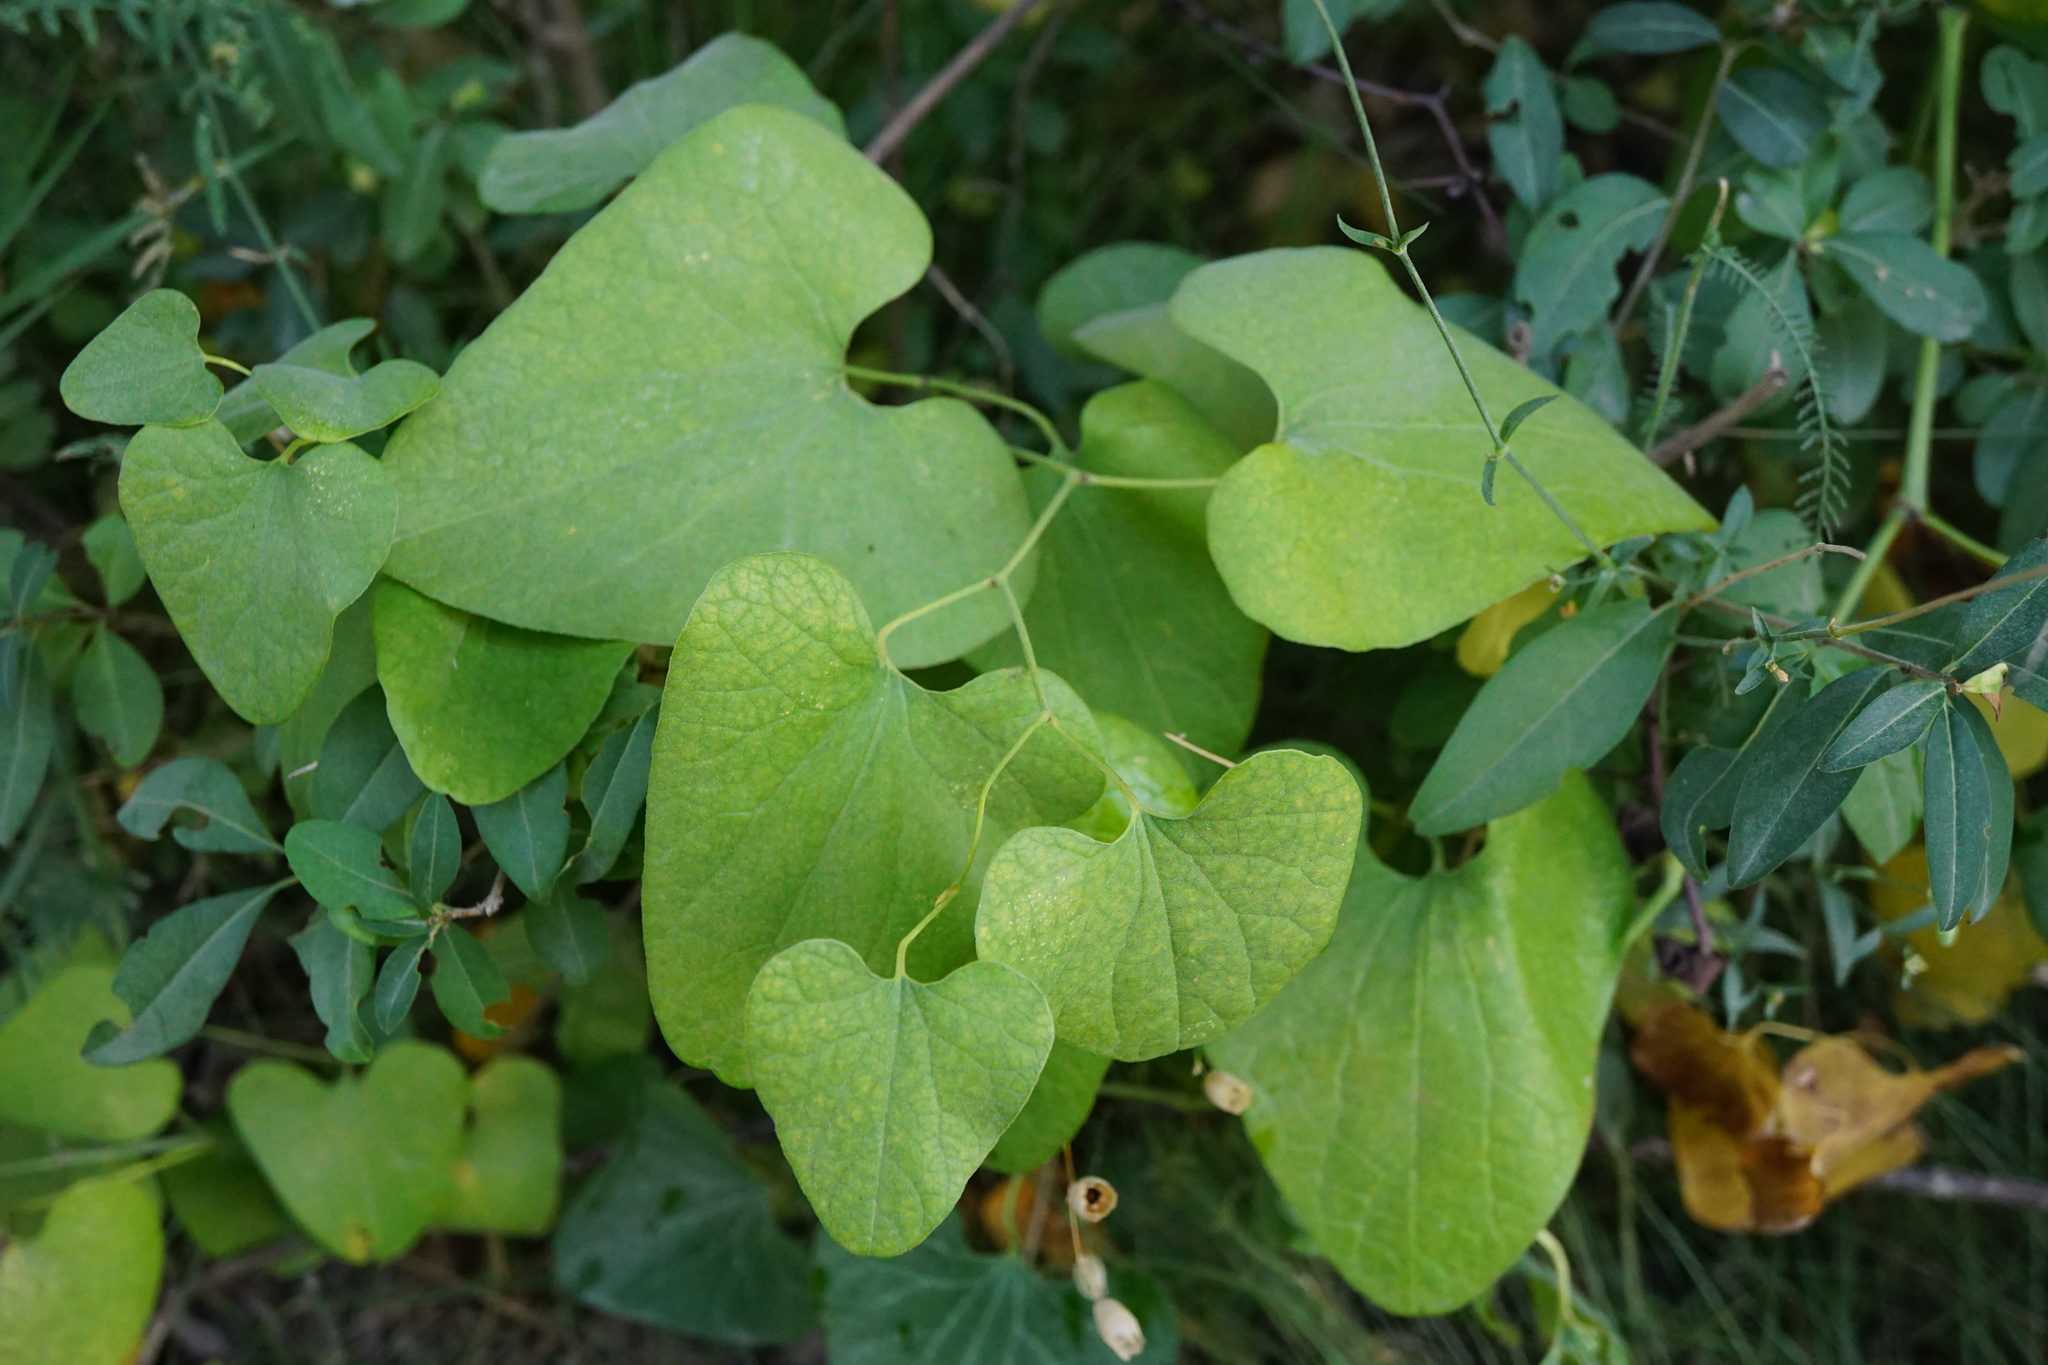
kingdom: Plantae
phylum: Tracheophyta
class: Magnoliopsida
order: Piperales
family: Aristolochiaceae
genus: Aristolochia
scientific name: Aristolochia clematitis
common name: Birthwort
